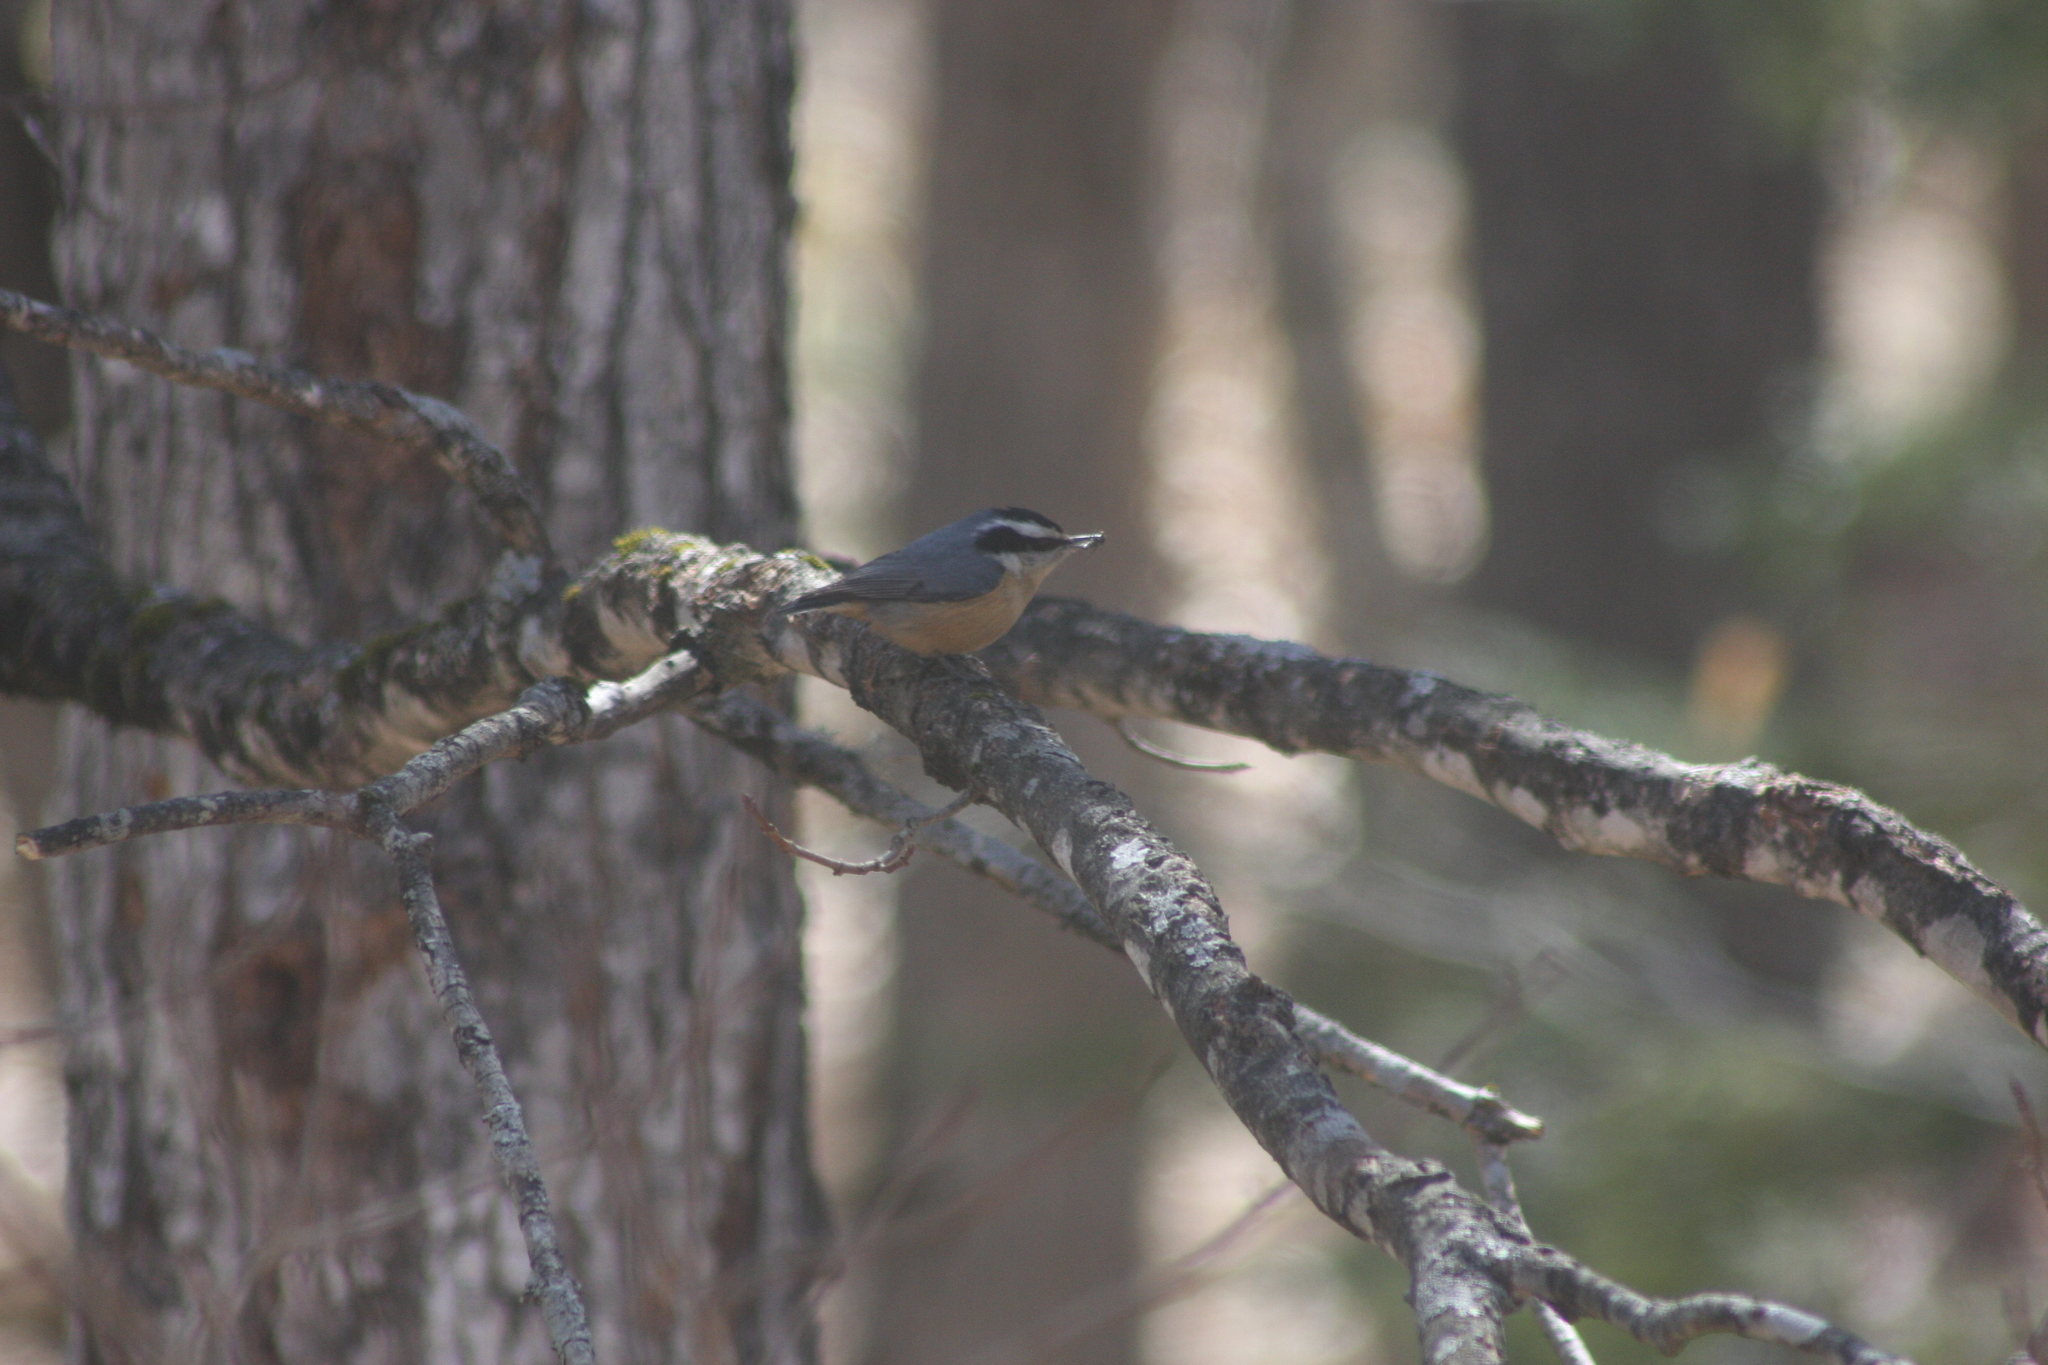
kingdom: Animalia
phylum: Chordata
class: Aves
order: Passeriformes
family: Sittidae
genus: Sitta
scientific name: Sitta canadensis
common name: Red-breasted nuthatch
